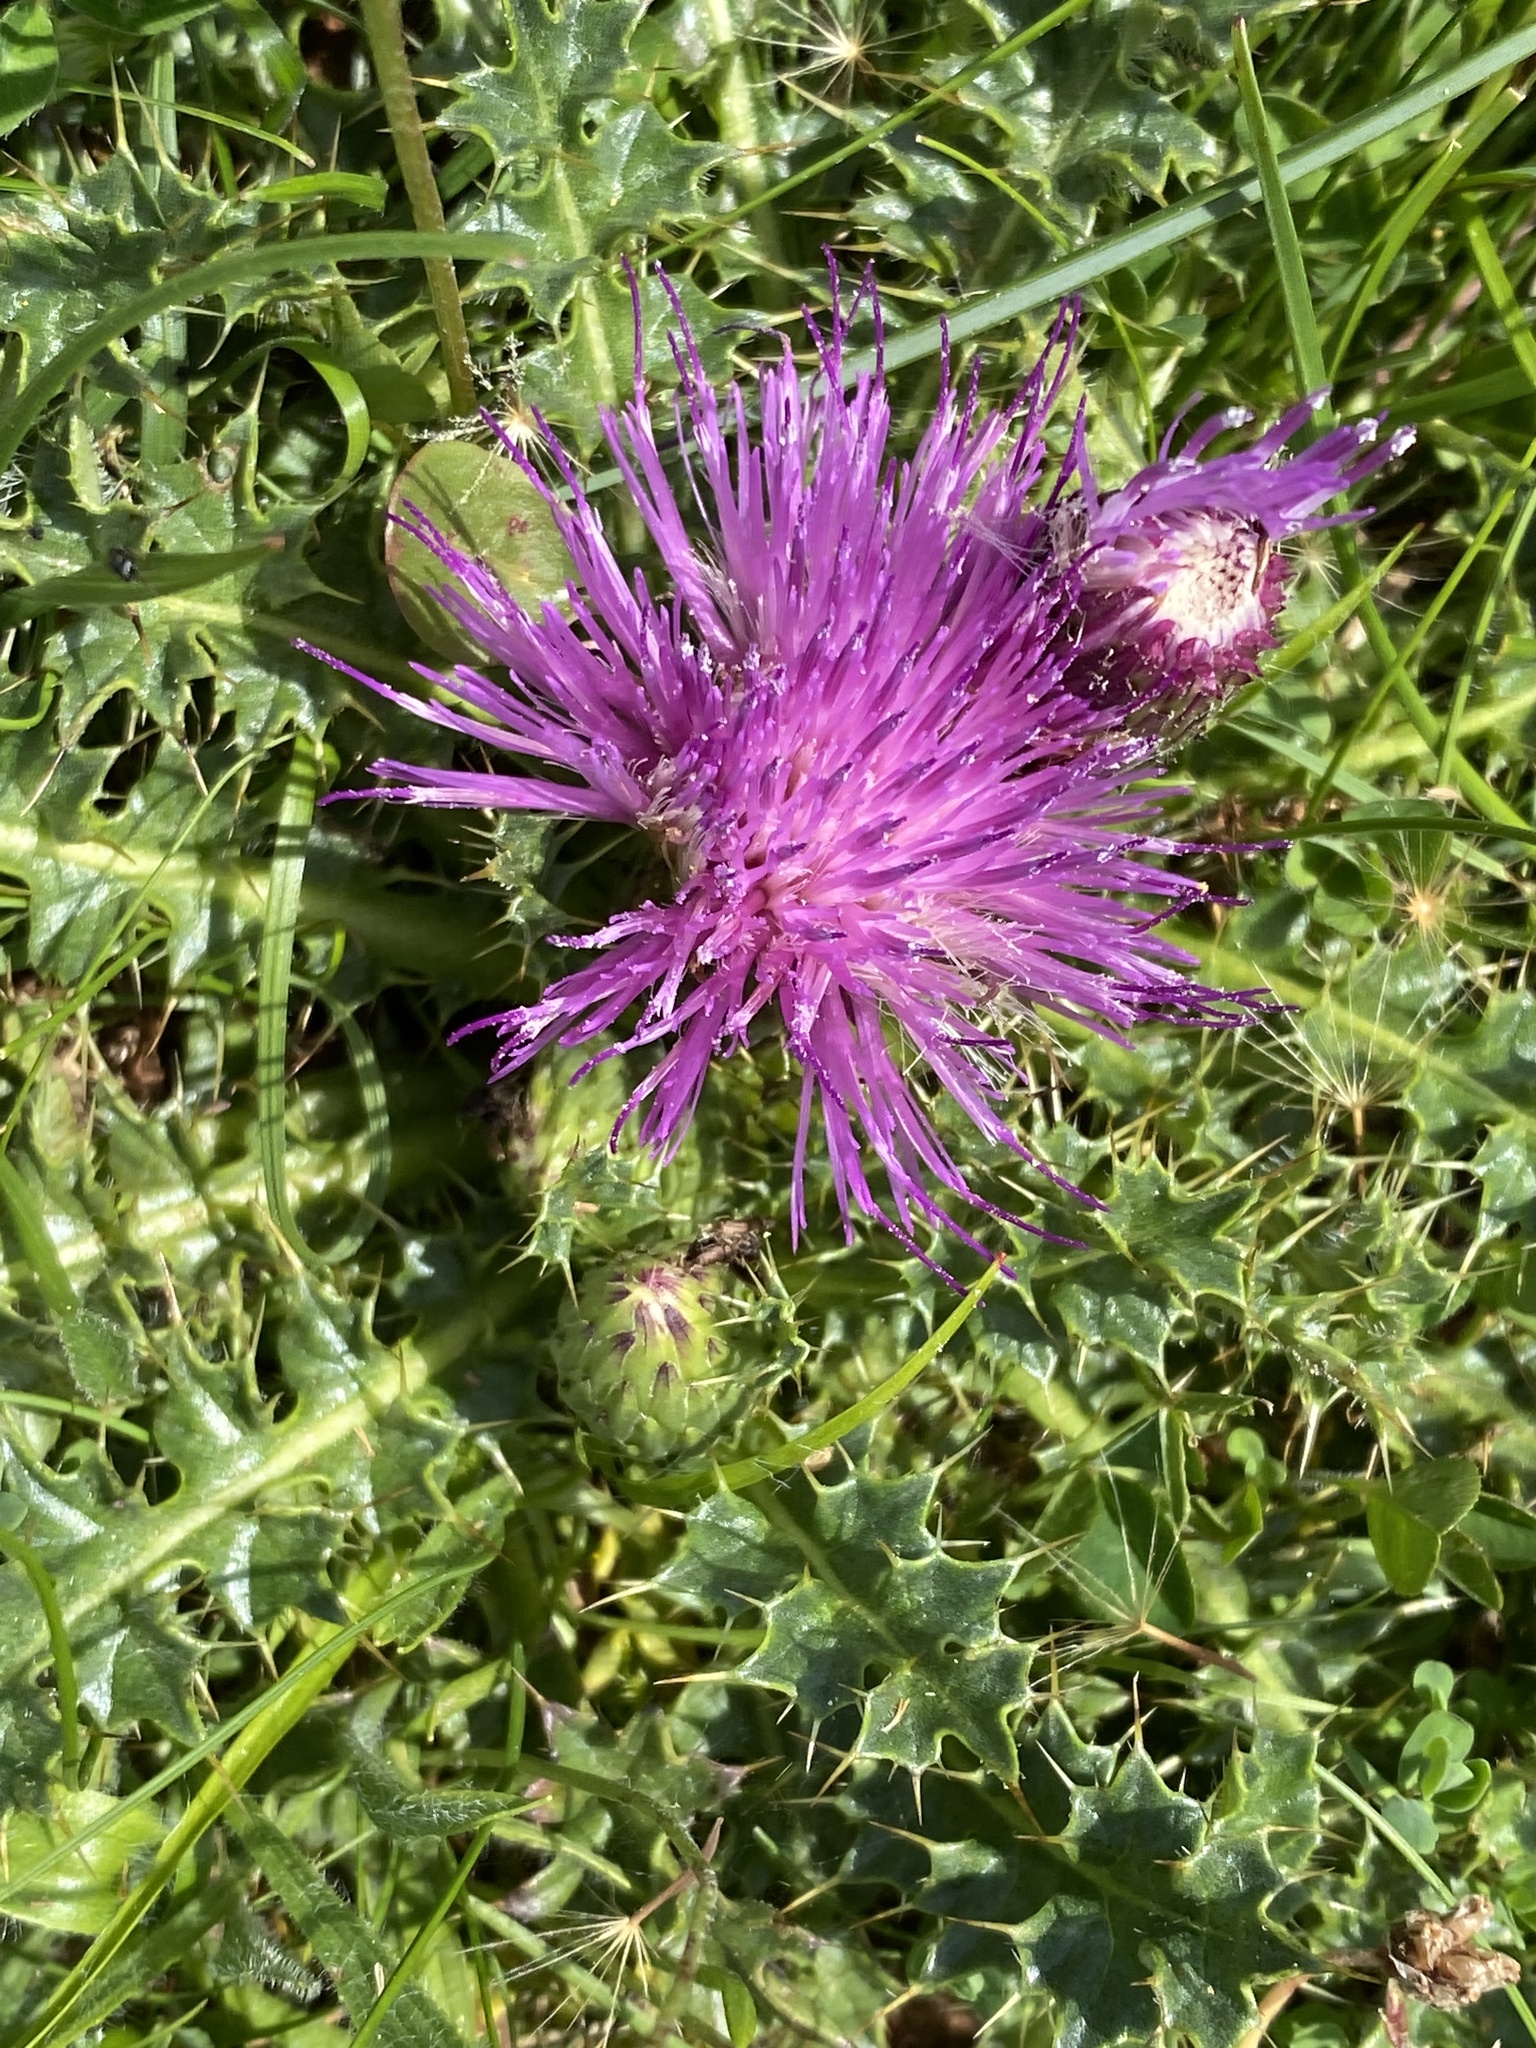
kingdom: Plantae
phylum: Tracheophyta
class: Magnoliopsida
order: Asterales
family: Asteraceae
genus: Cirsium
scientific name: Cirsium acaulon
